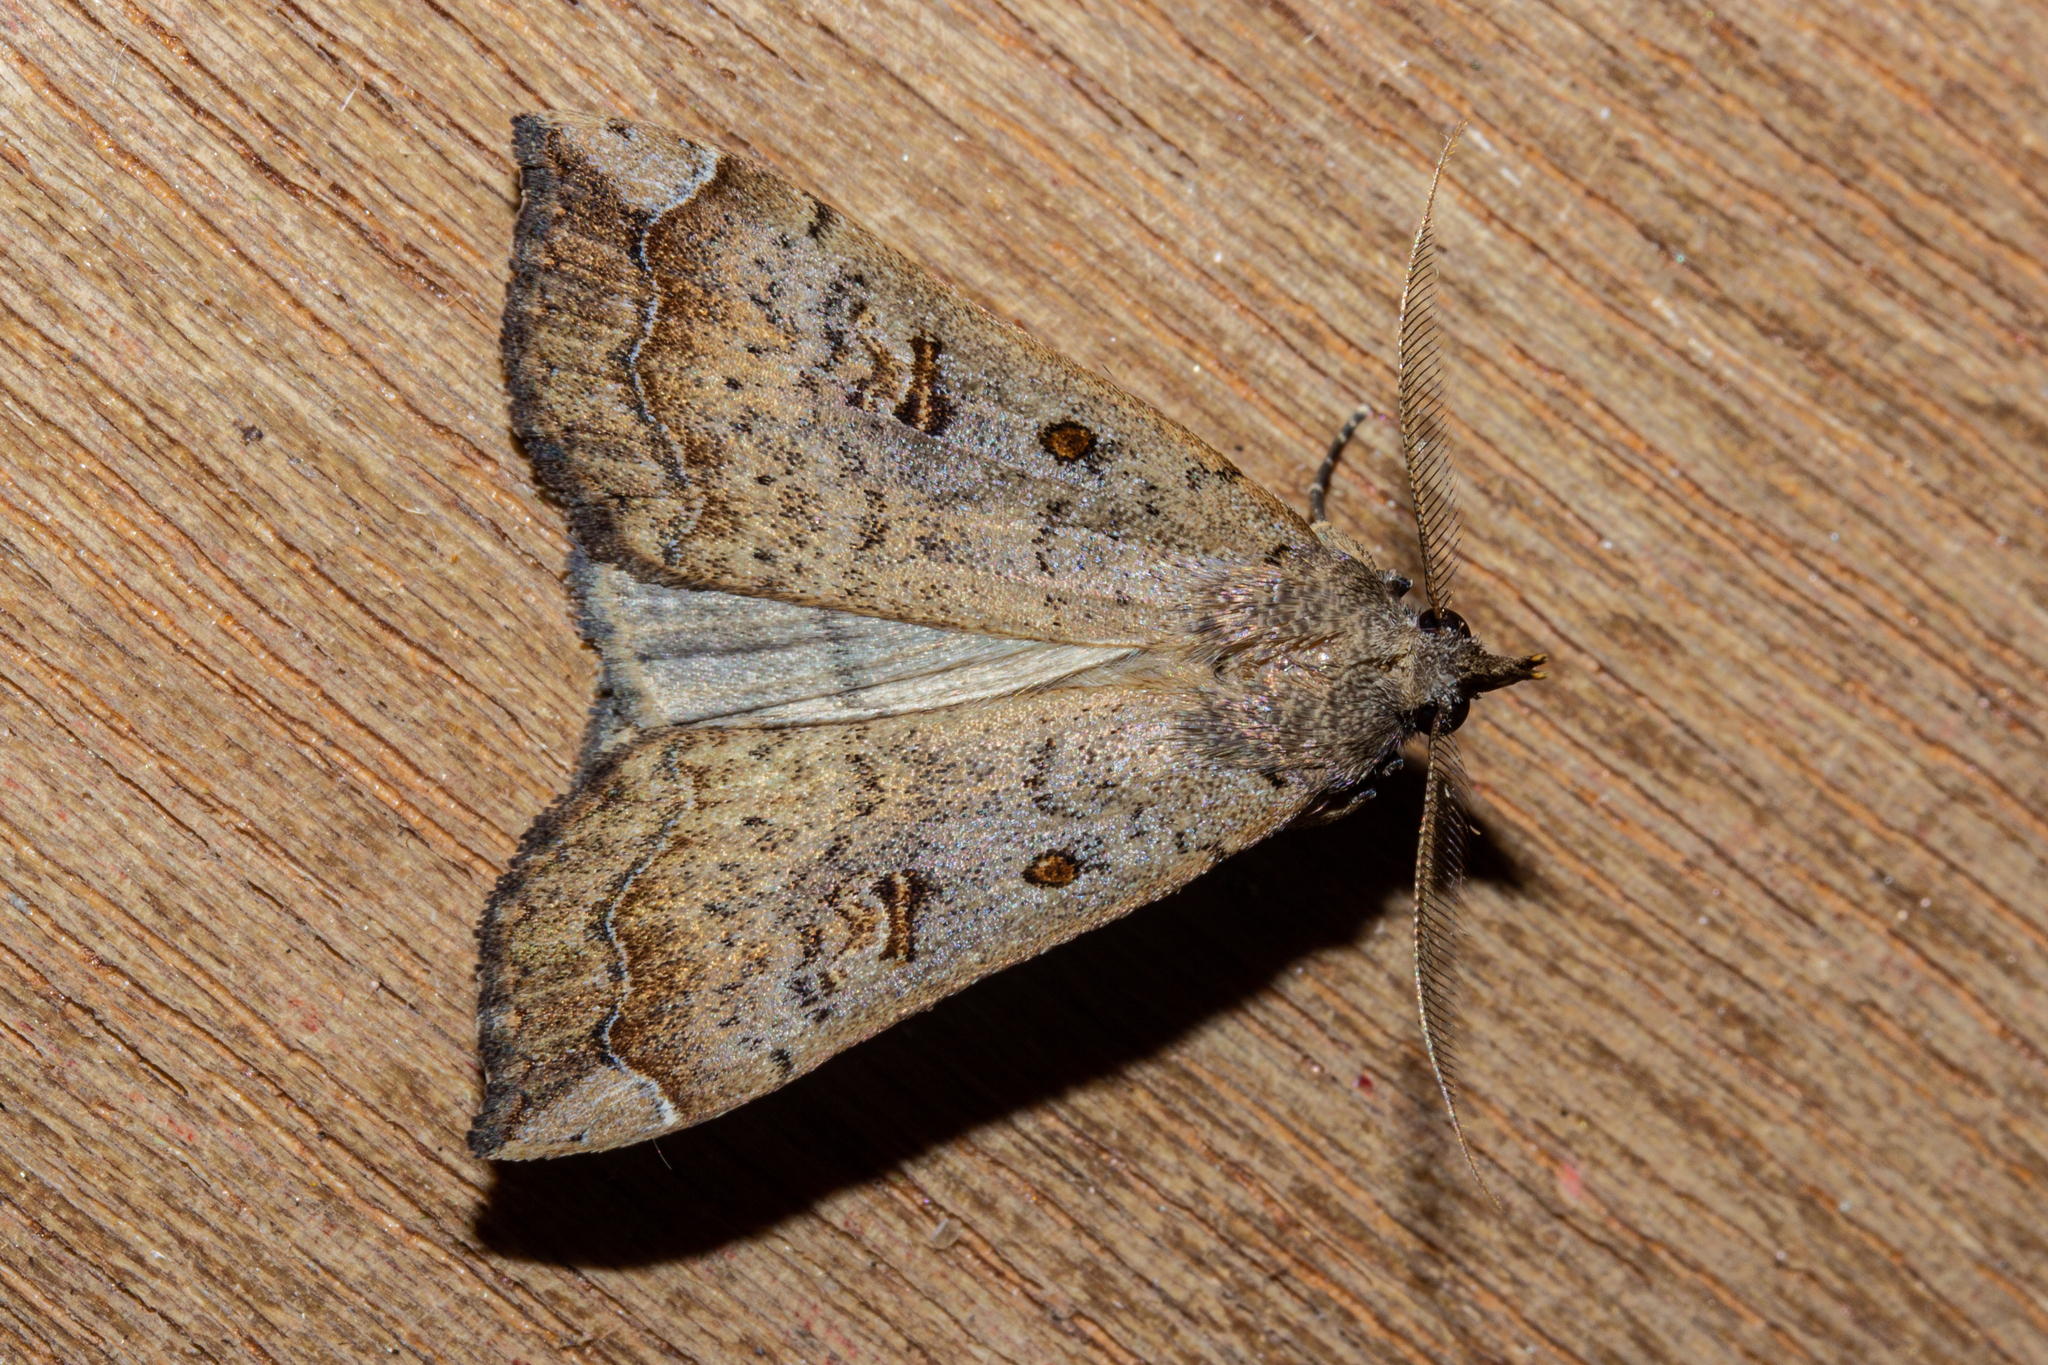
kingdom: Animalia
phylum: Arthropoda
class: Insecta
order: Lepidoptera
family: Erebidae
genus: Rhapsa
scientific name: Rhapsa scotosialis
